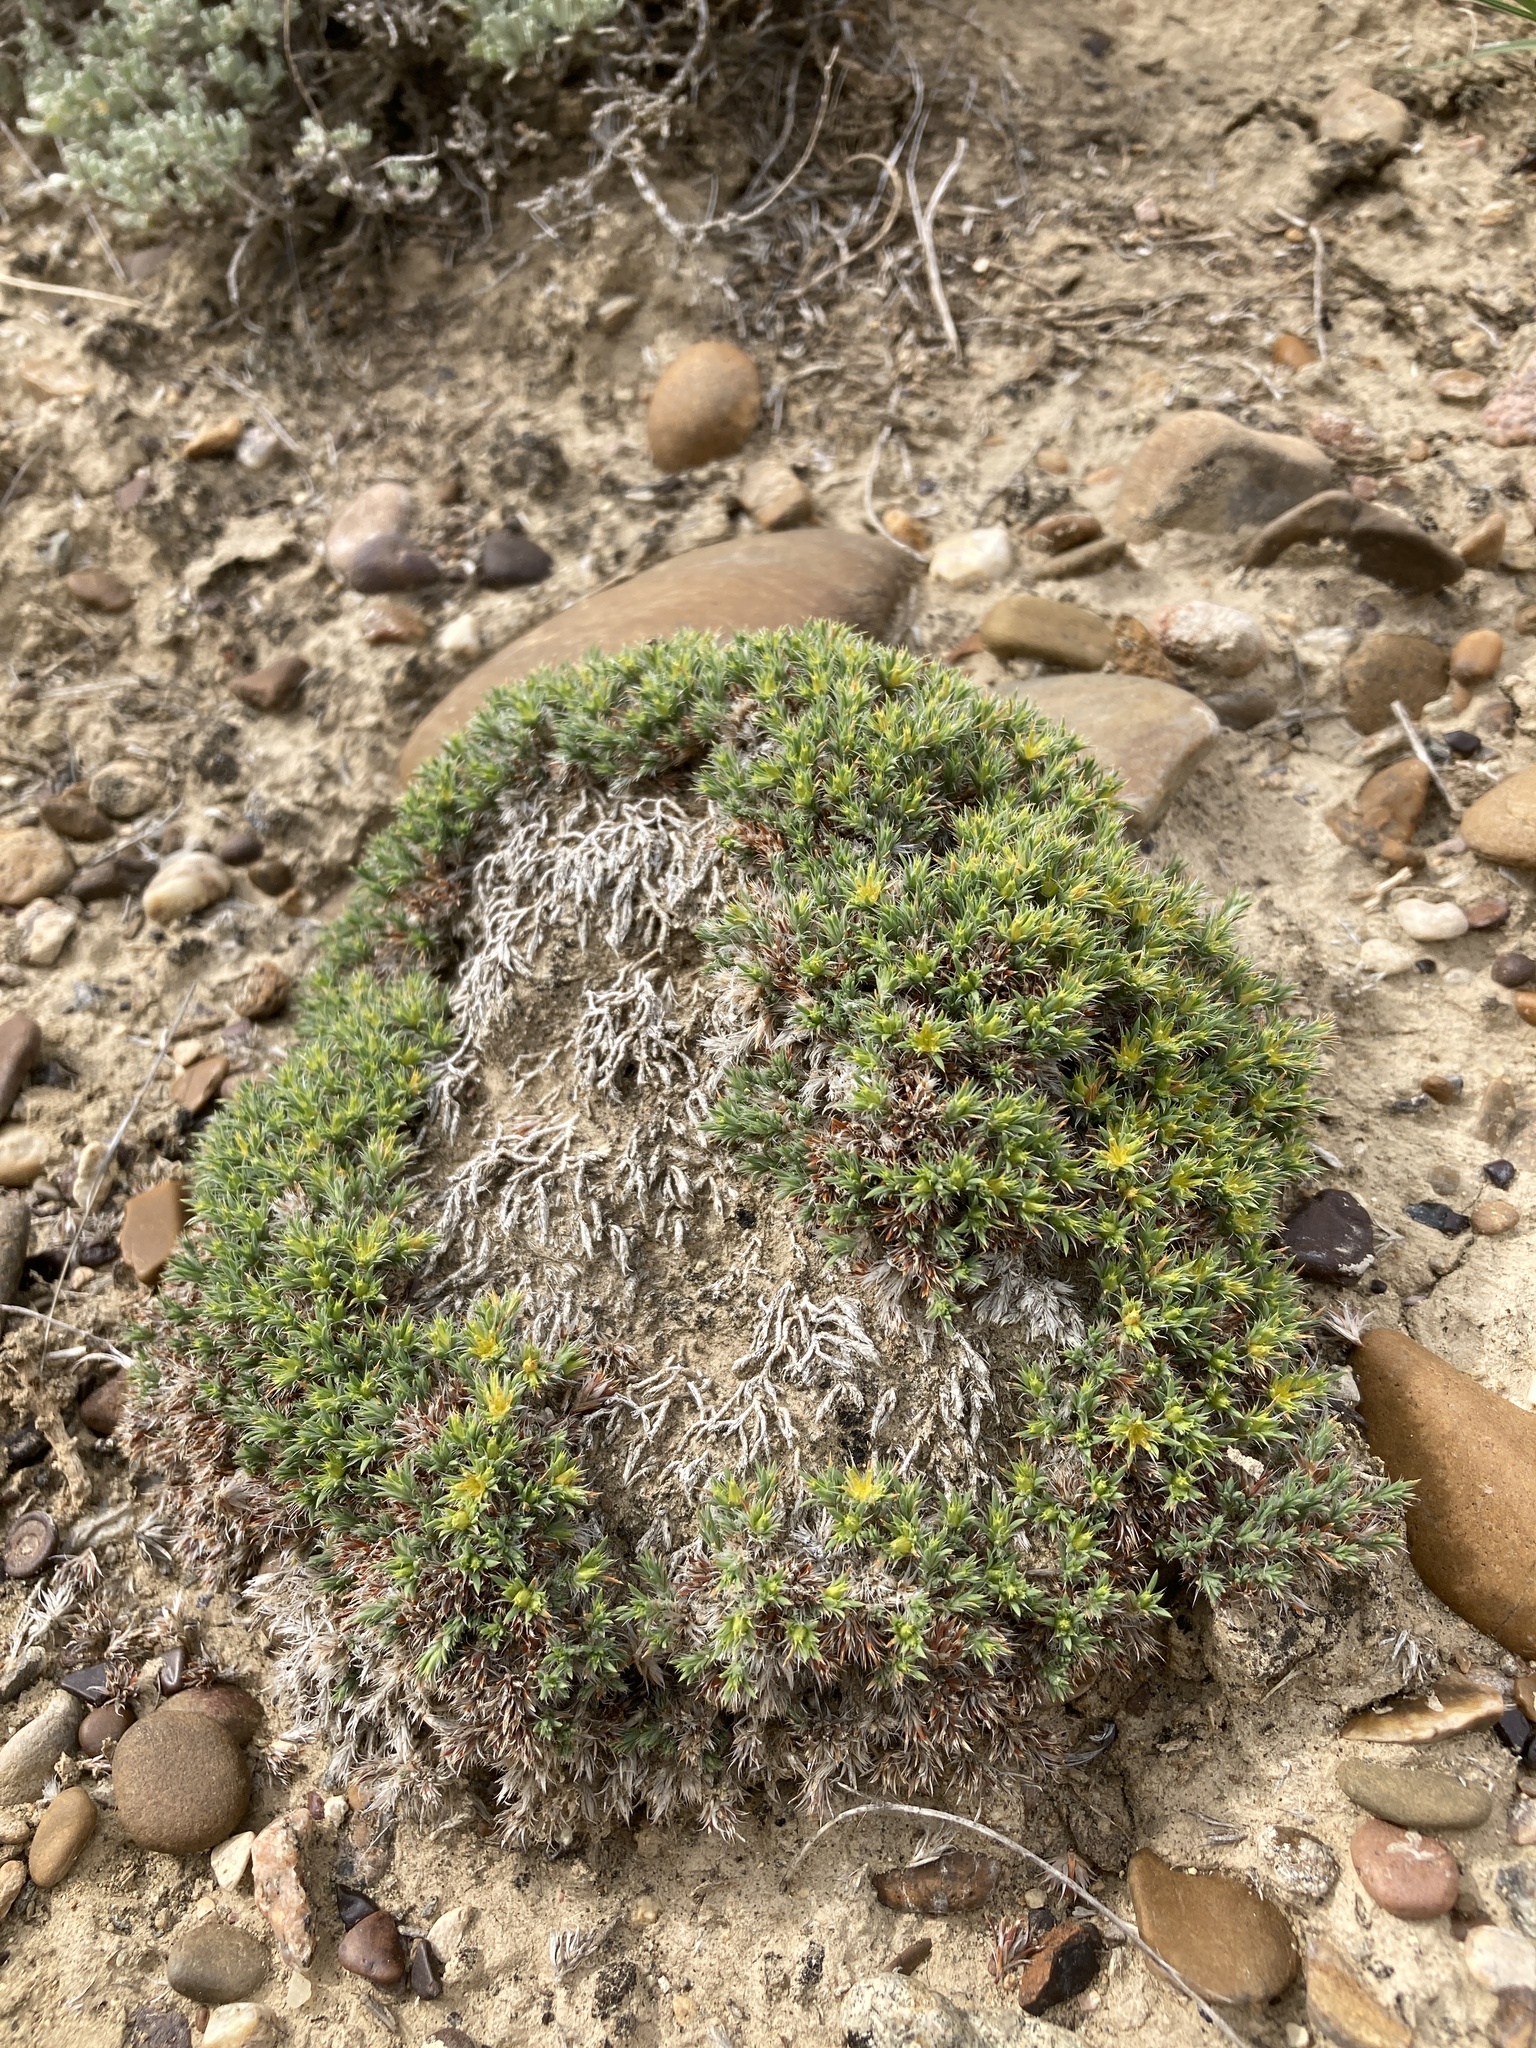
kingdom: Plantae
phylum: Tracheophyta
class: Magnoliopsida
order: Caryophyllales
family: Caryophyllaceae
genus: Paronychia
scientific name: Paronychia sessiliflora
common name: Creeping nailwort
